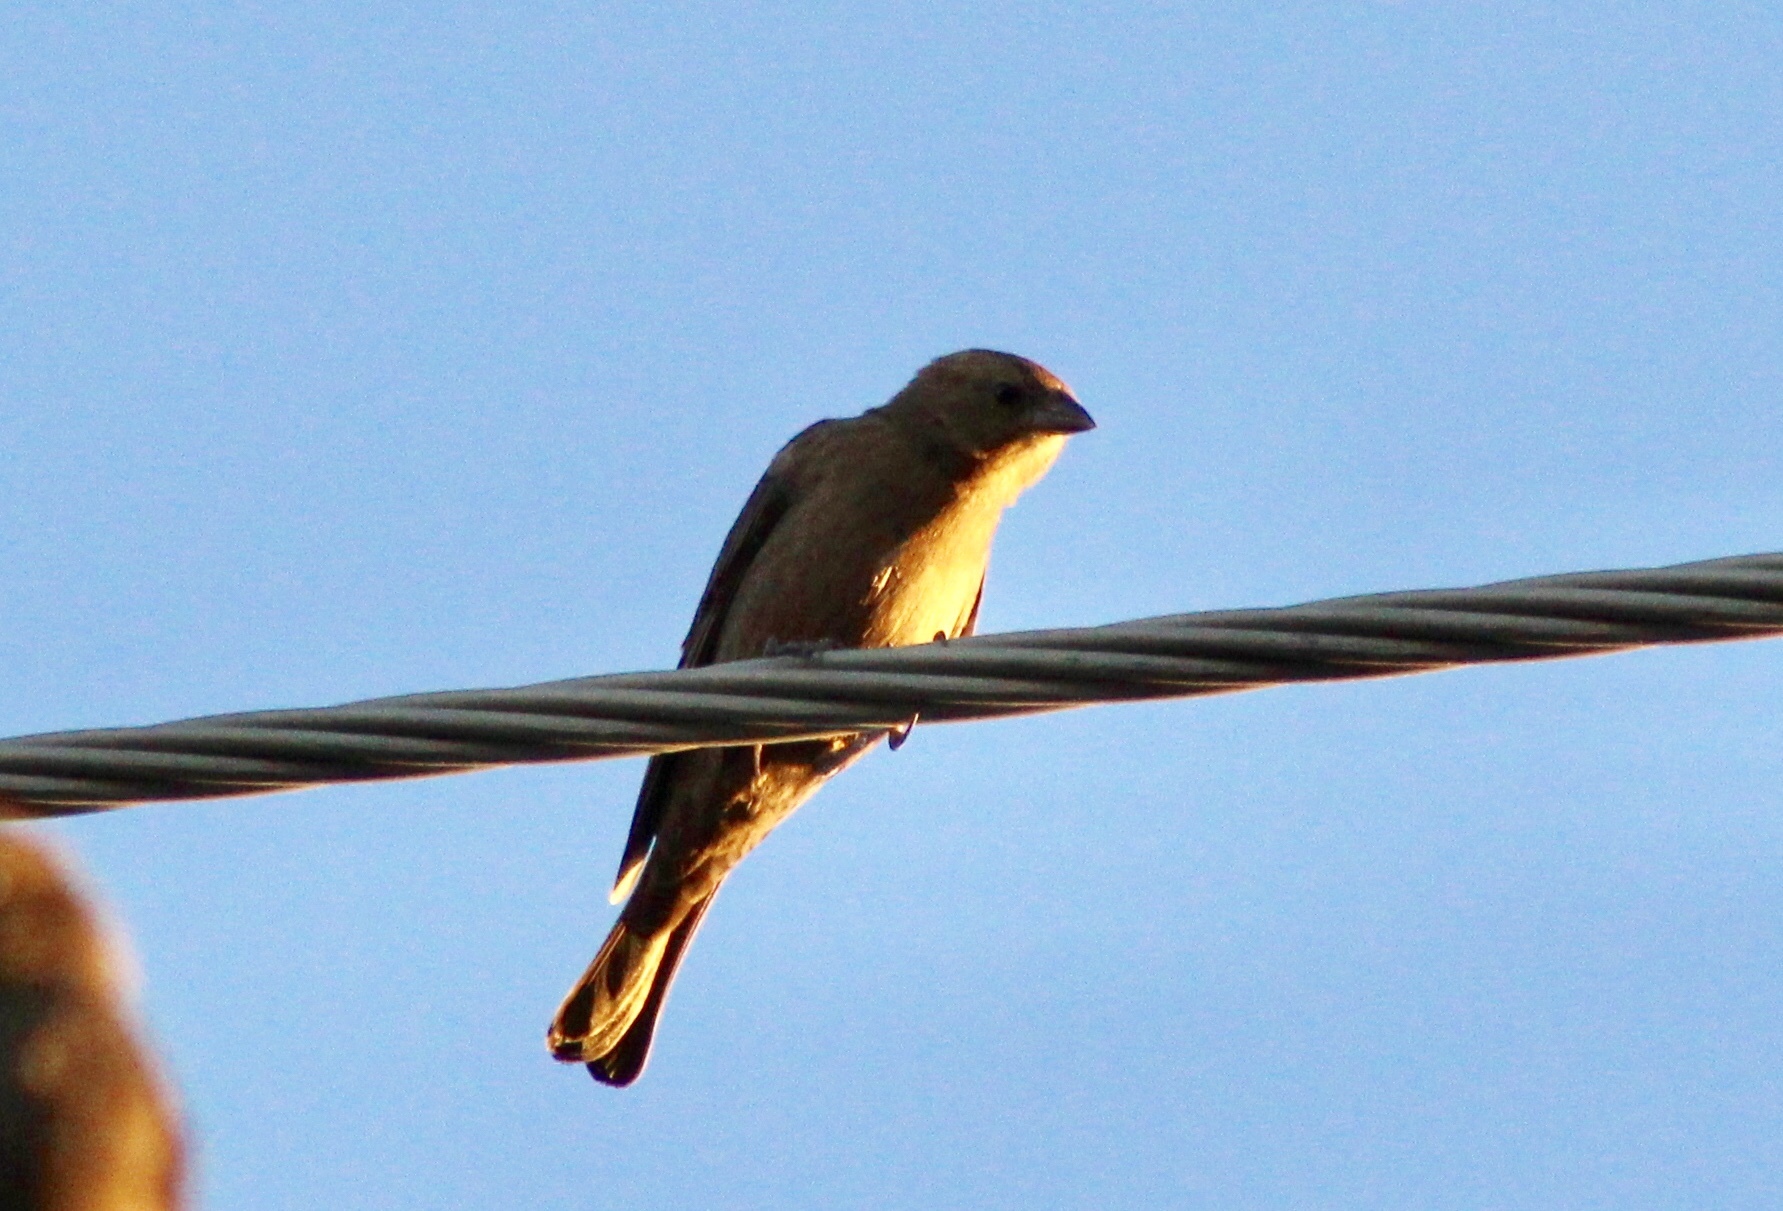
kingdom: Animalia
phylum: Chordata
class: Aves
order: Passeriformes
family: Icteridae
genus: Molothrus
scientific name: Molothrus ater
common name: Brown-headed cowbird
